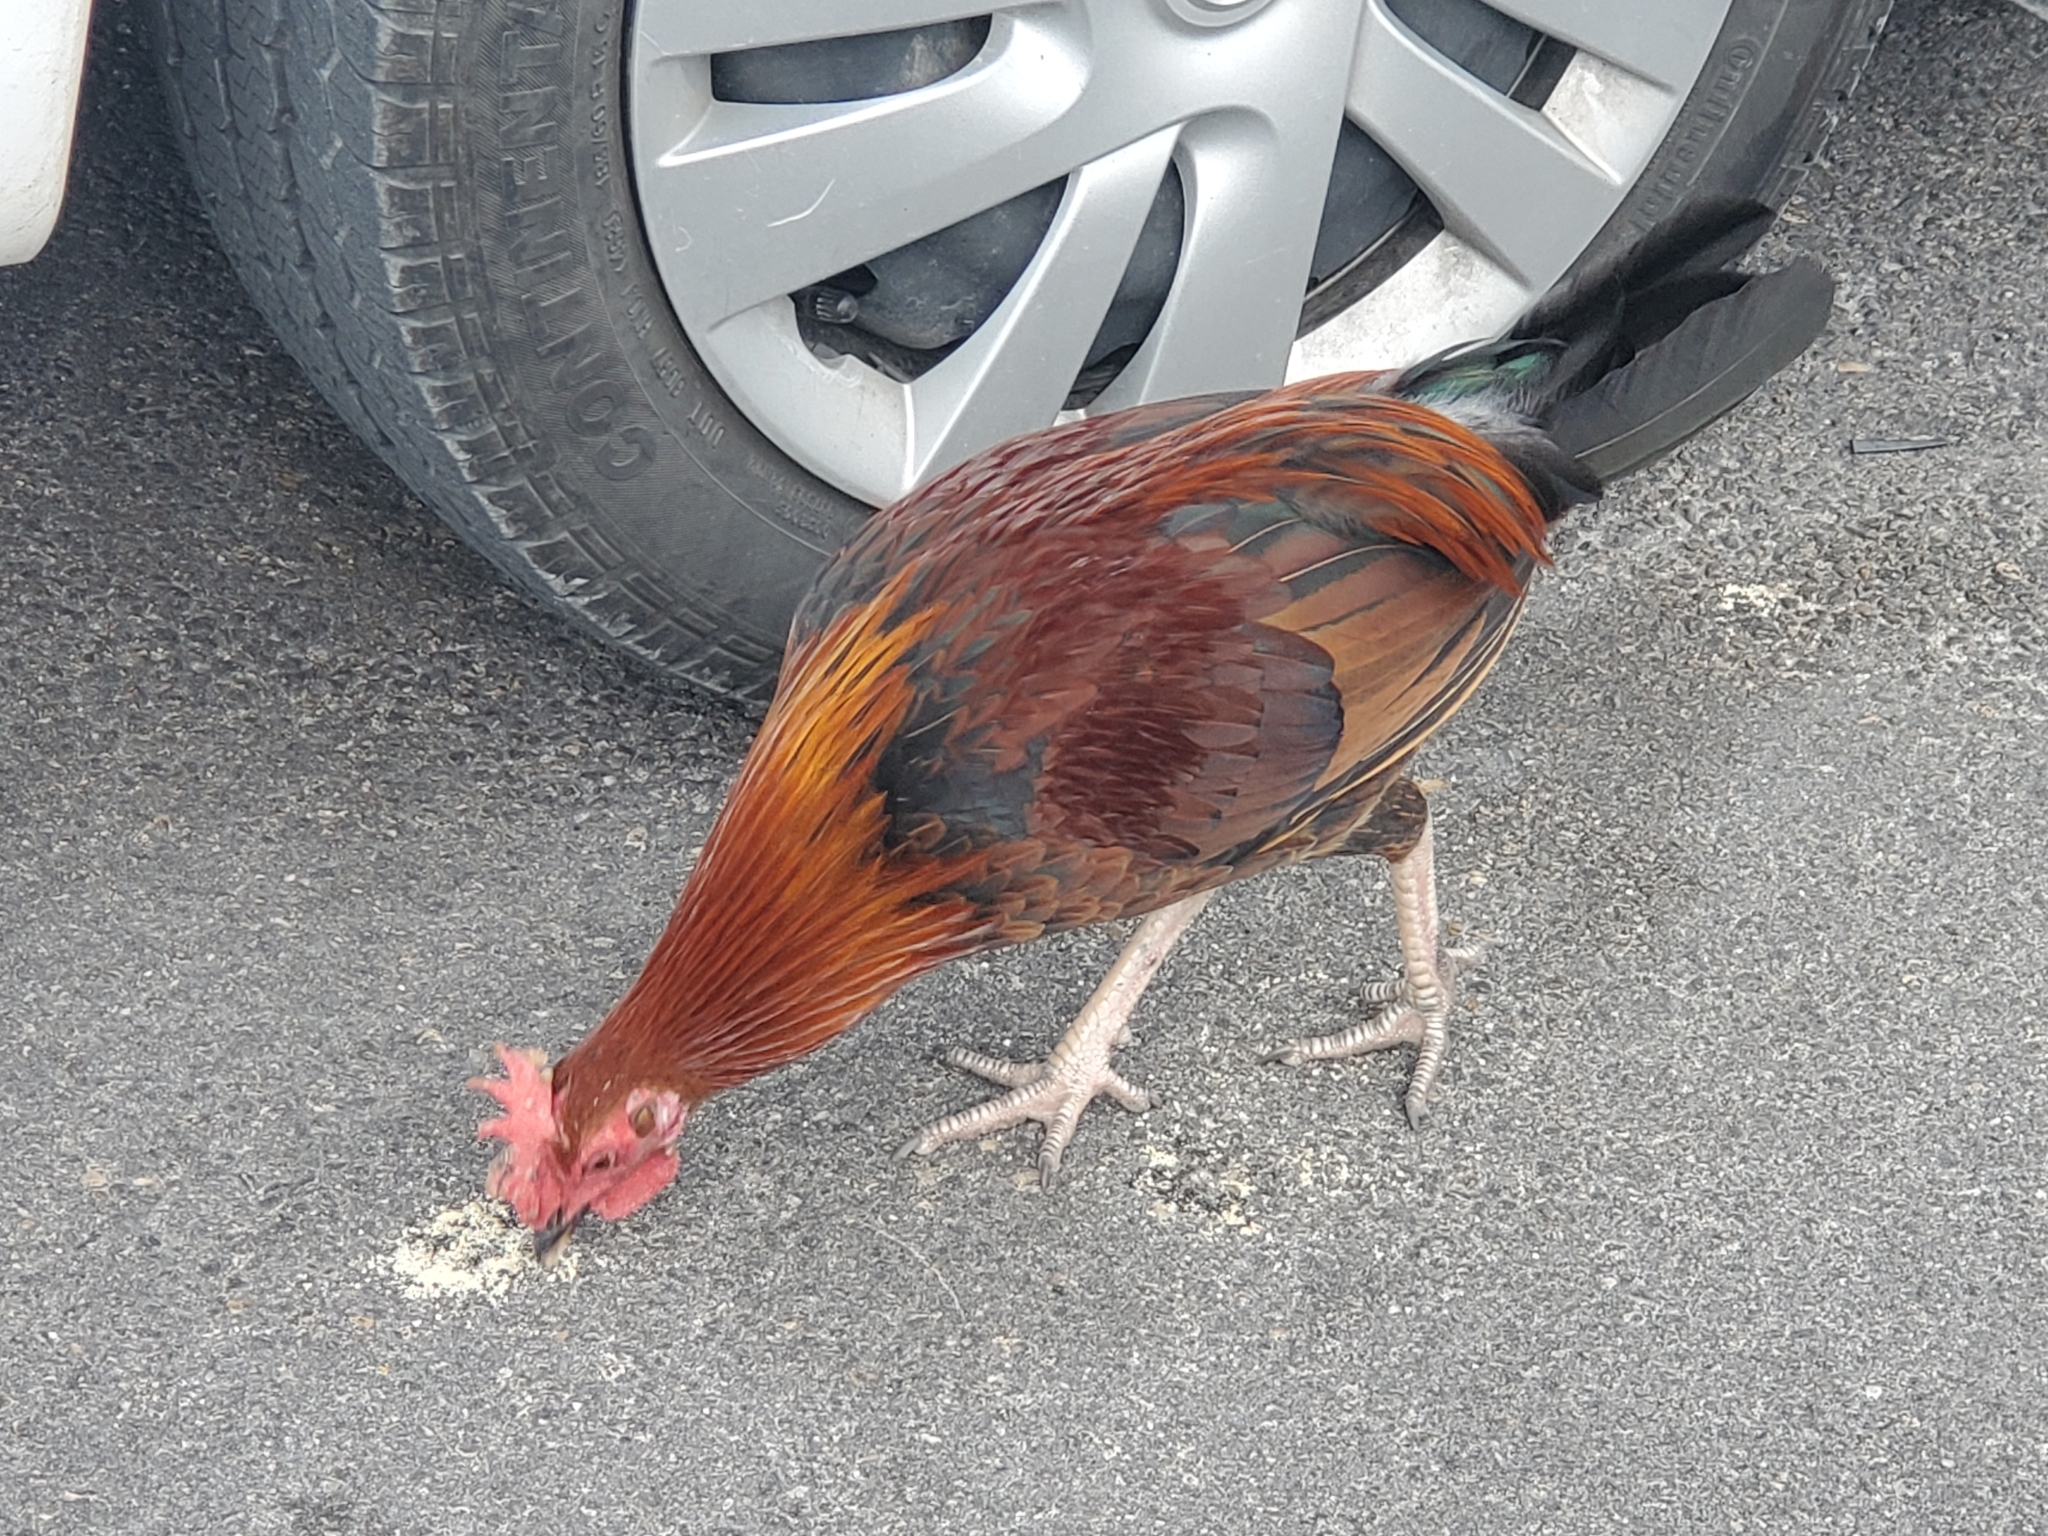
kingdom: Animalia
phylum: Chordata
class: Aves
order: Galliformes
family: Phasianidae
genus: Gallus
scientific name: Gallus gallus
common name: Red junglefowl
